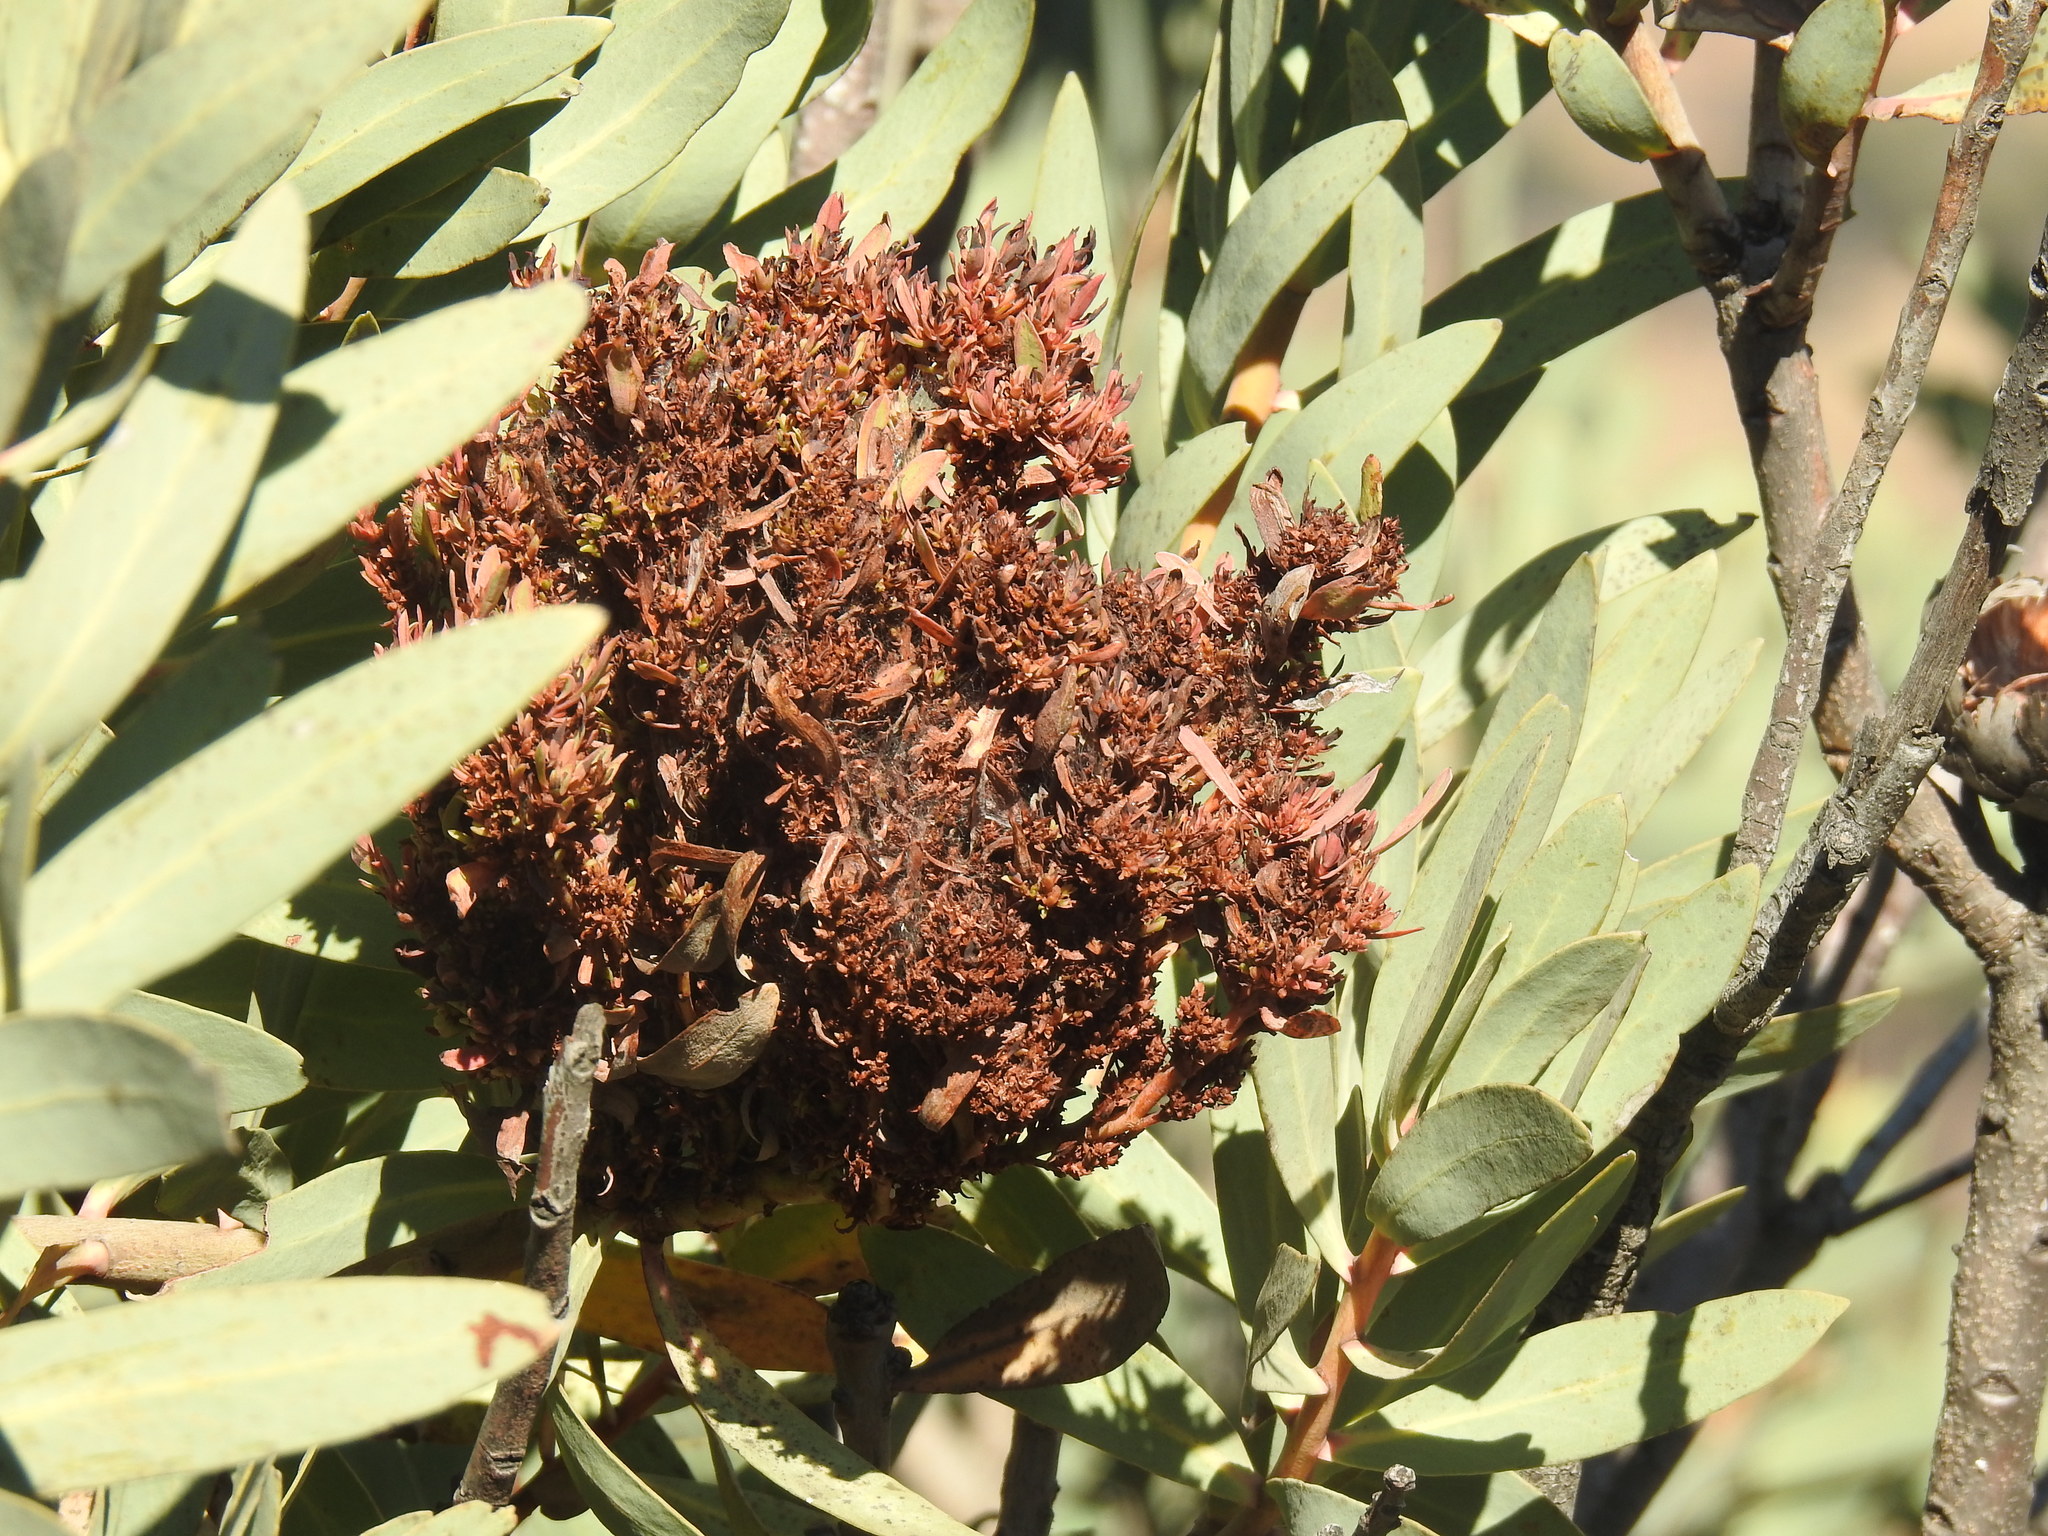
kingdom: Bacteria
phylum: Firmicutes
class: Bacilli
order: Acholeplasmatales
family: Acholeplasmataceae
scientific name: Acholeplasmataceae
